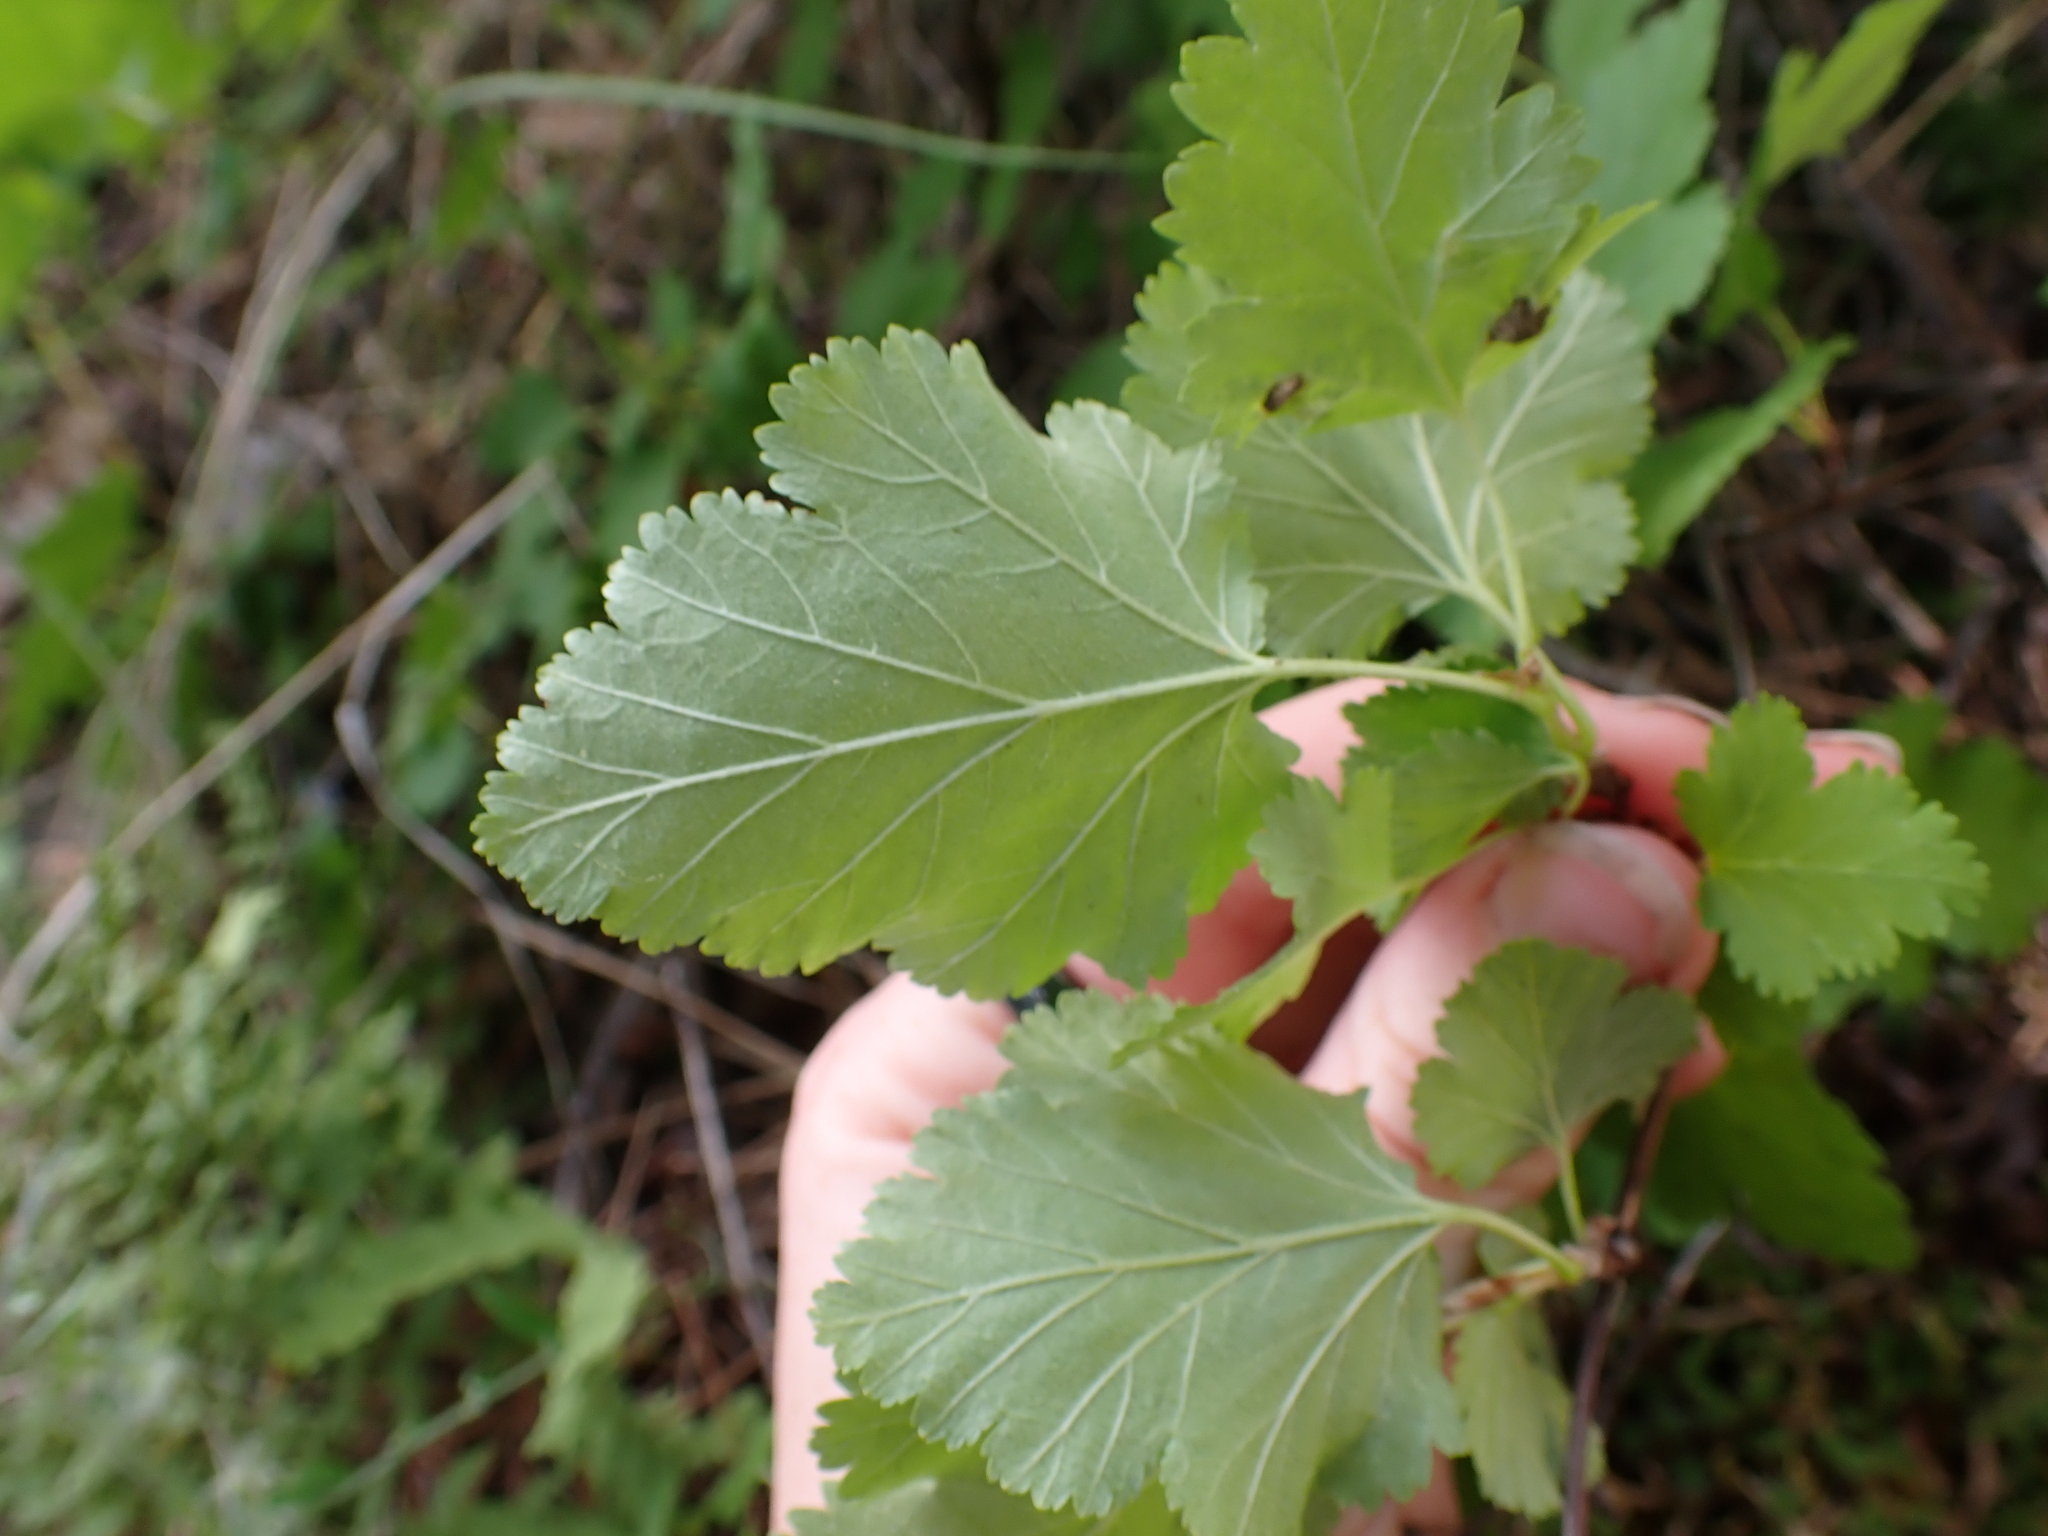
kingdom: Plantae
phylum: Tracheophyta
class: Magnoliopsida
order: Rosales
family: Rosaceae
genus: Physocarpus
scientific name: Physocarpus malvaceus
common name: Mallow ninebark
